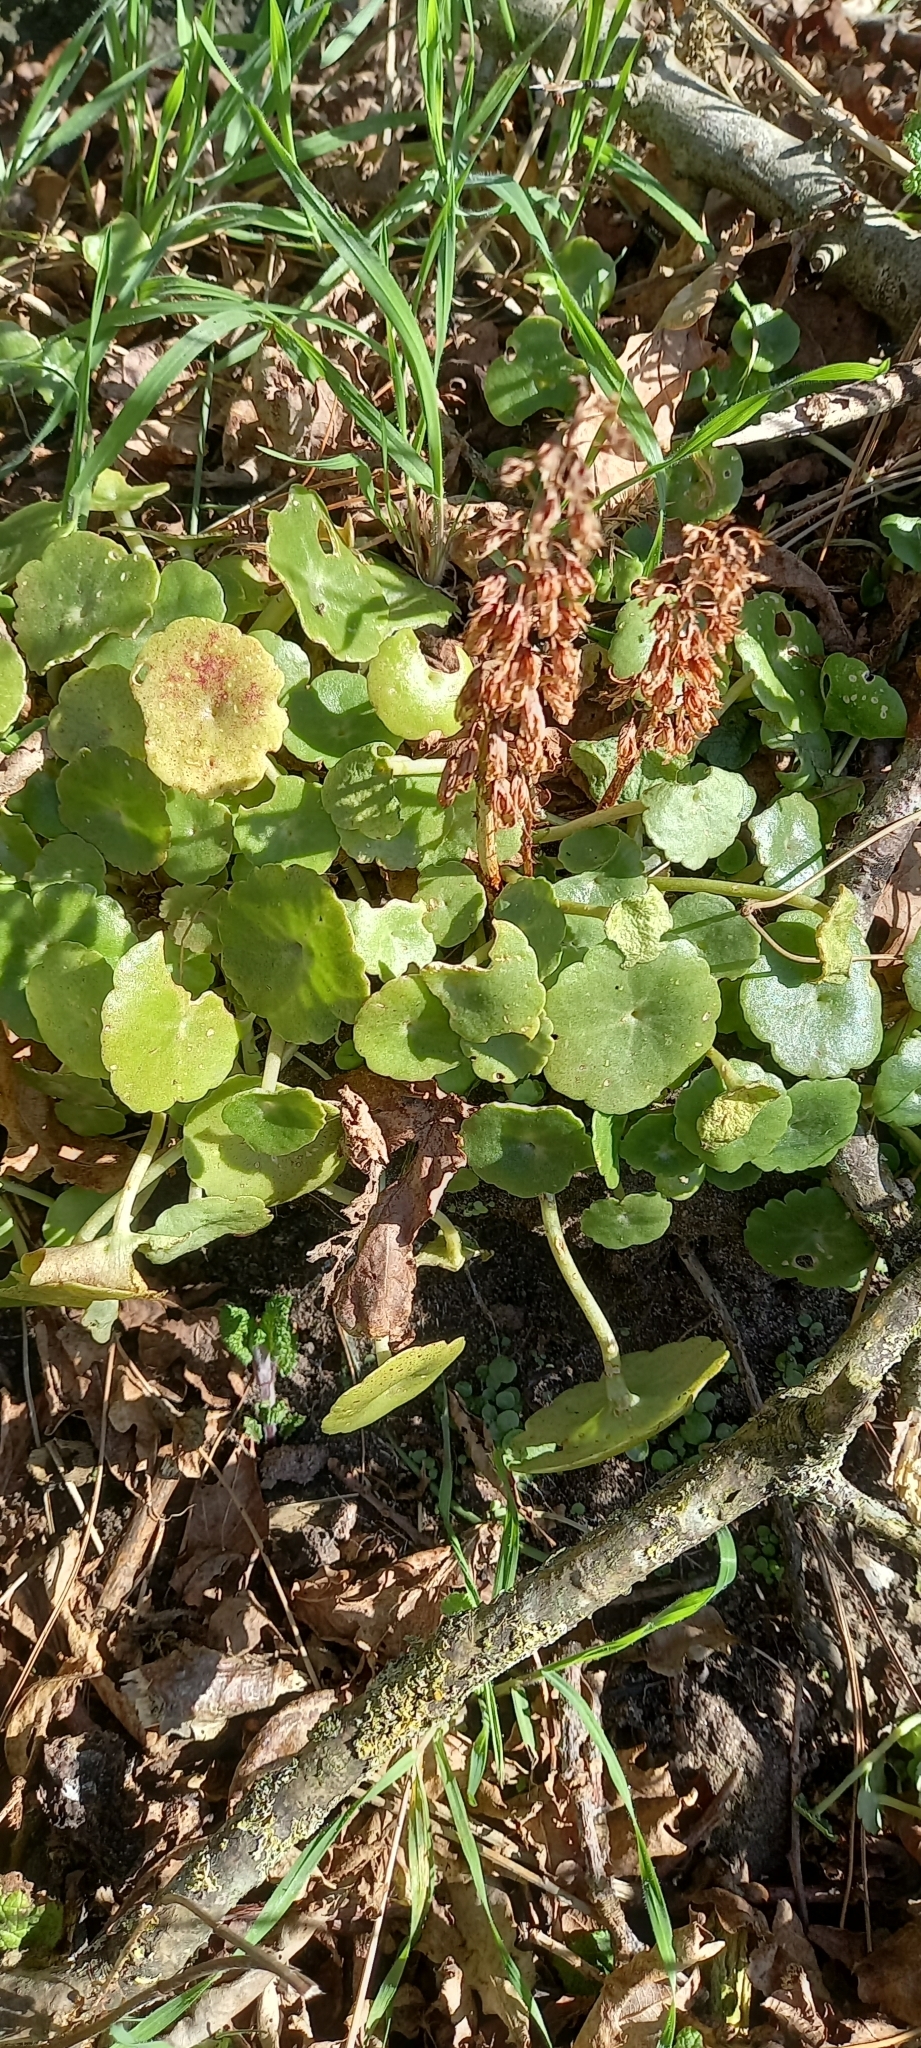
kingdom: Plantae
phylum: Tracheophyta
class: Magnoliopsida
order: Saxifragales
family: Crassulaceae
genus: Umbilicus
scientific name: Umbilicus rupestris
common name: Navelwort
